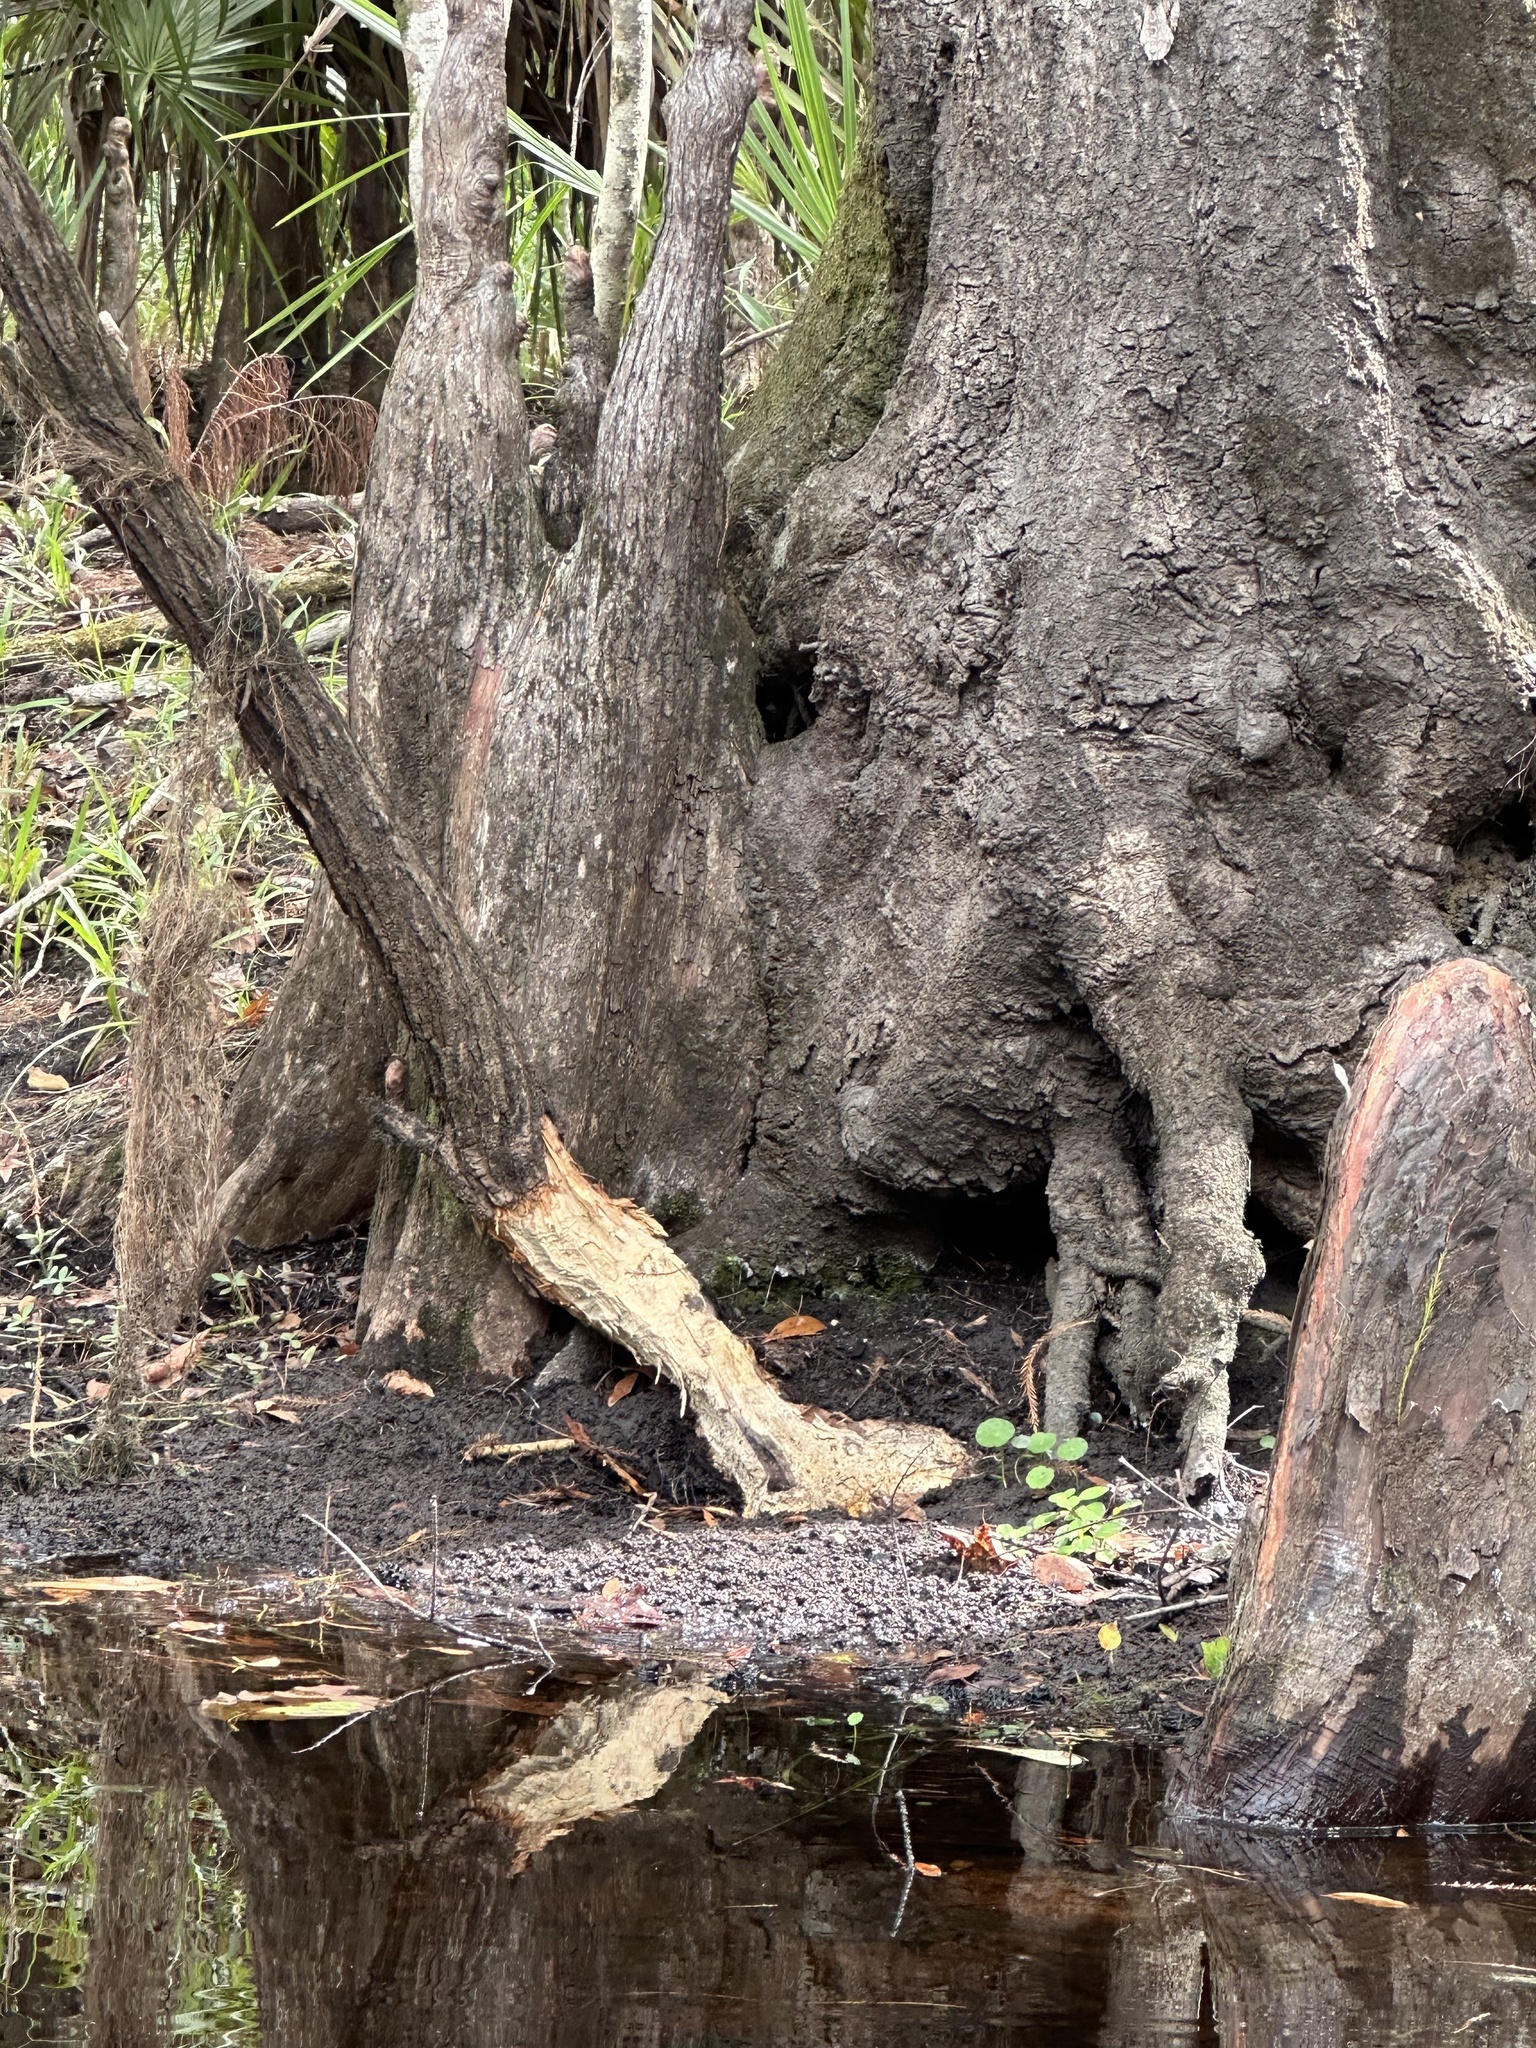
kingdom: Animalia
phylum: Chordata
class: Mammalia
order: Rodentia
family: Castoridae
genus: Castor
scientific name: Castor canadensis
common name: American beaver
